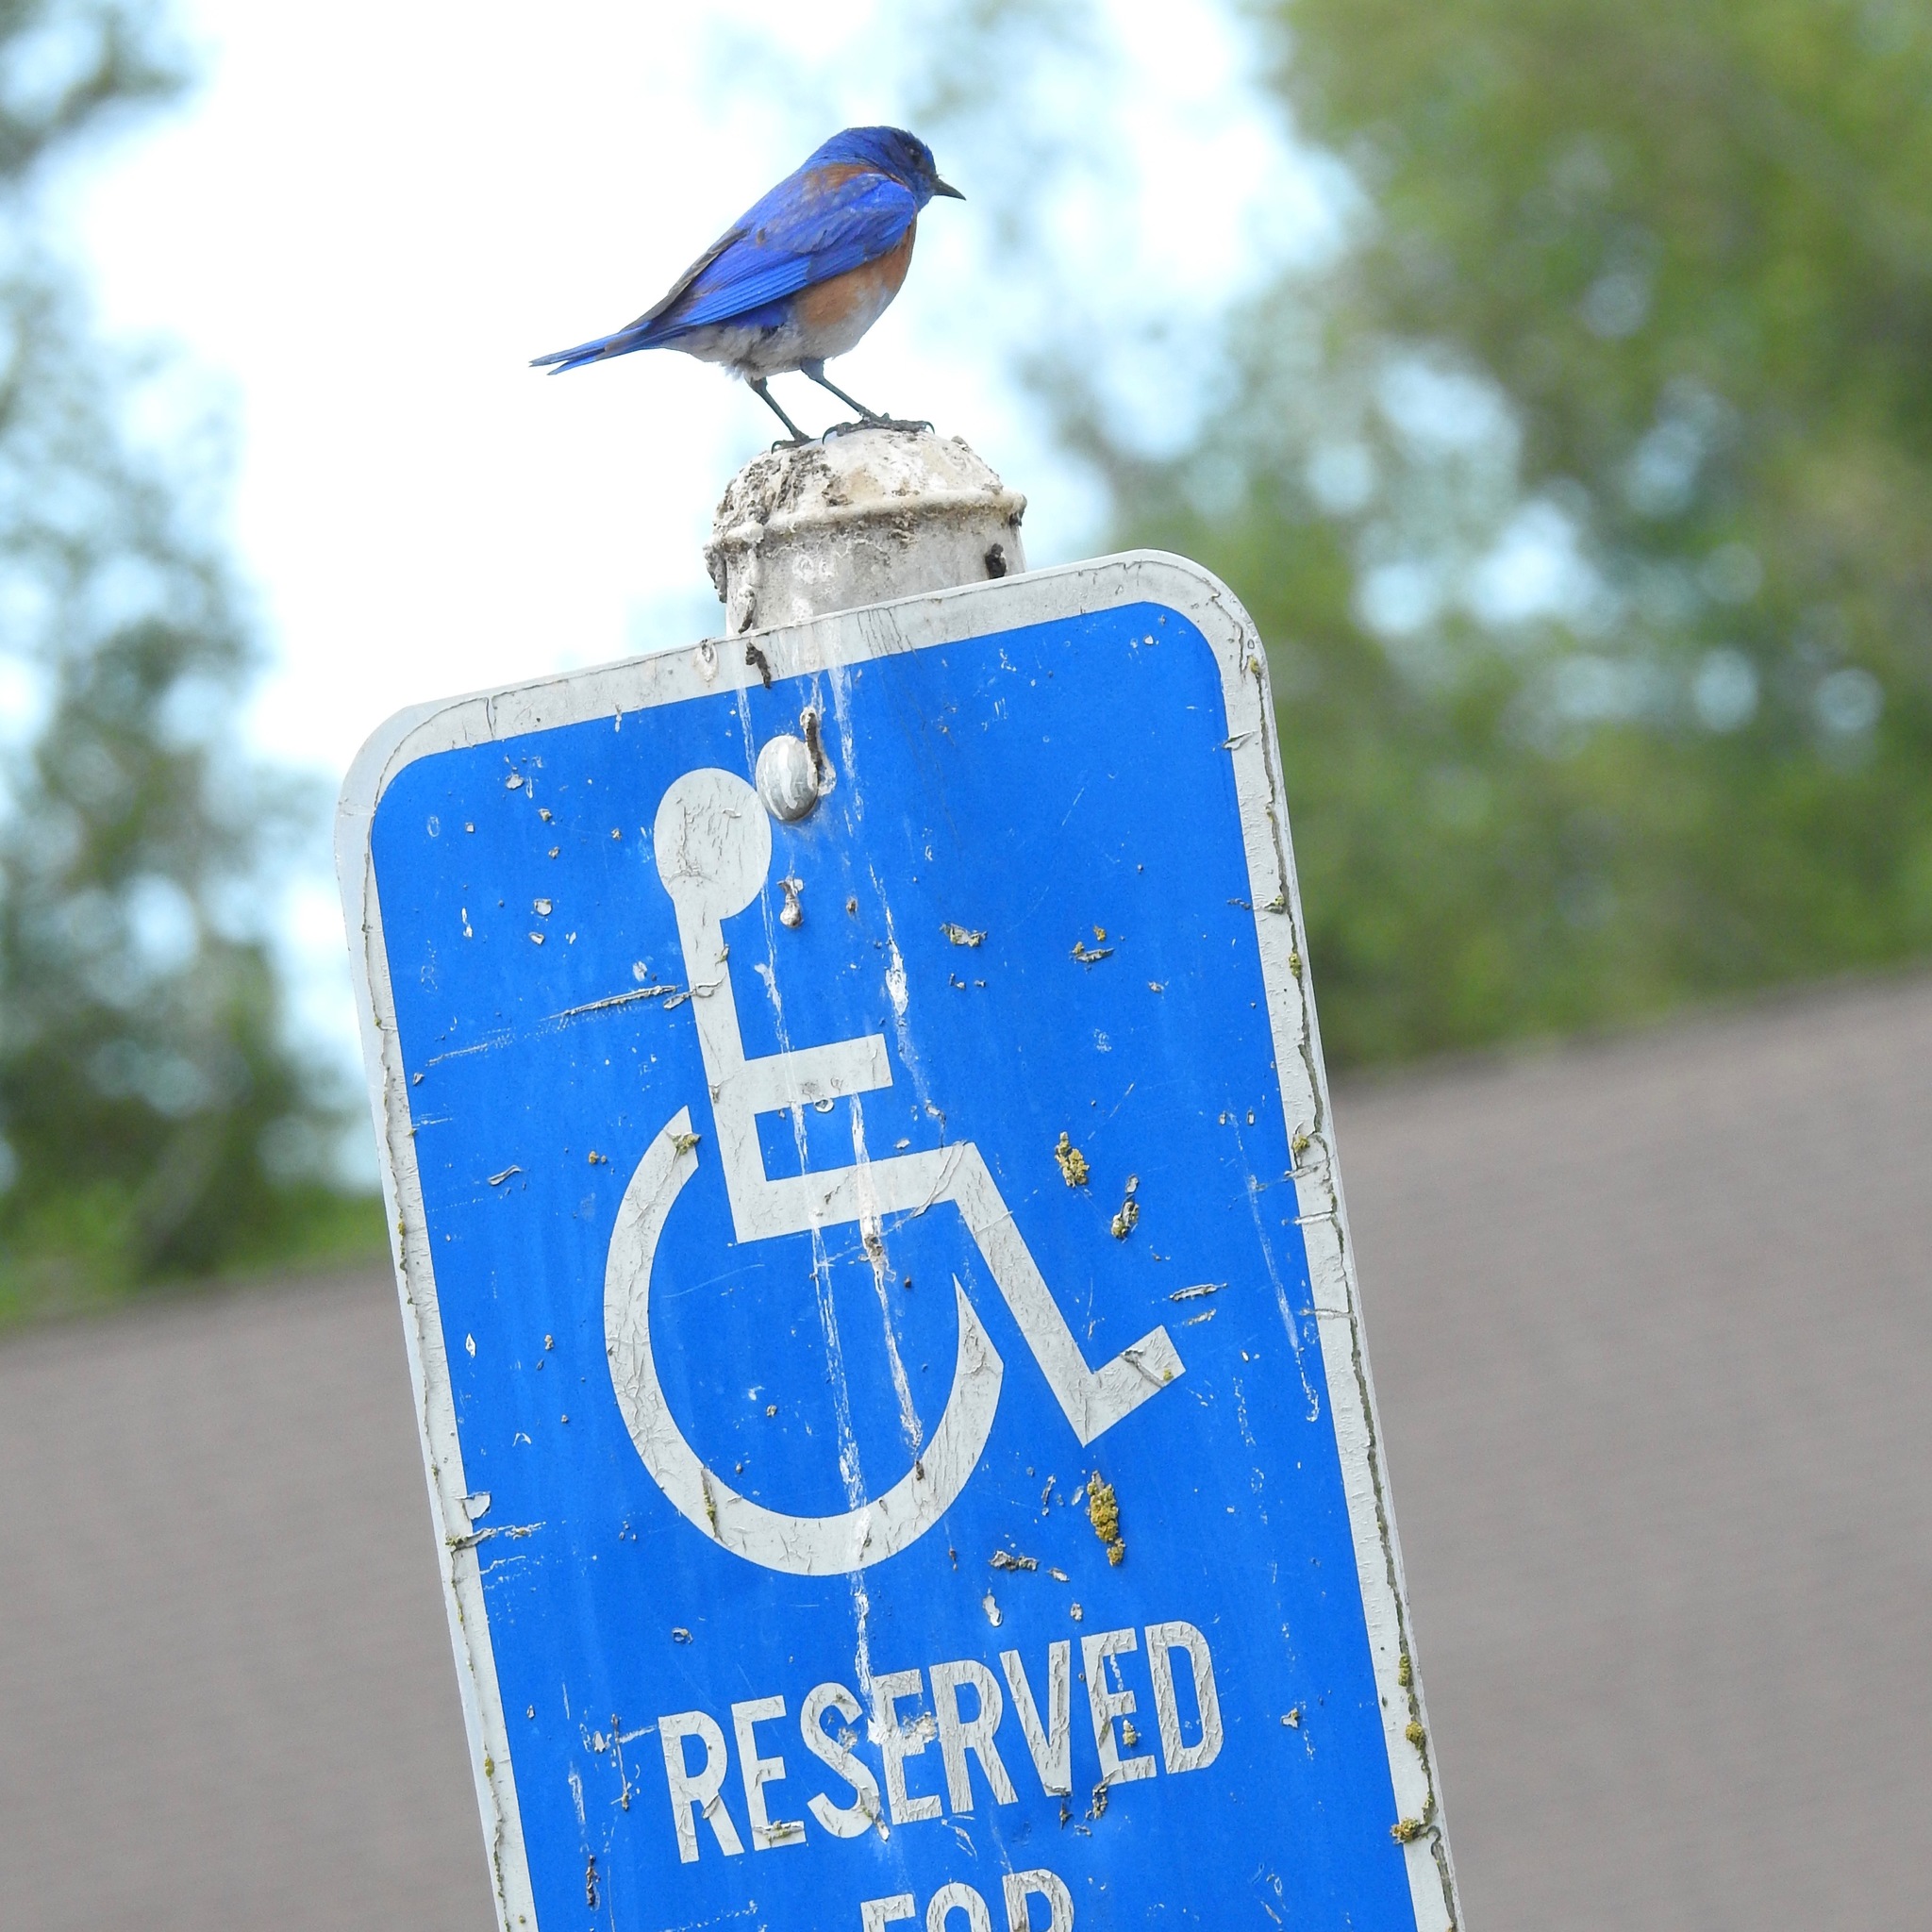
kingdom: Animalia
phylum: Chordata
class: Aves
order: Passeriformes
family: Turdidae
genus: Sialia
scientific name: Sialia mexicana
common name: Western bluebird
